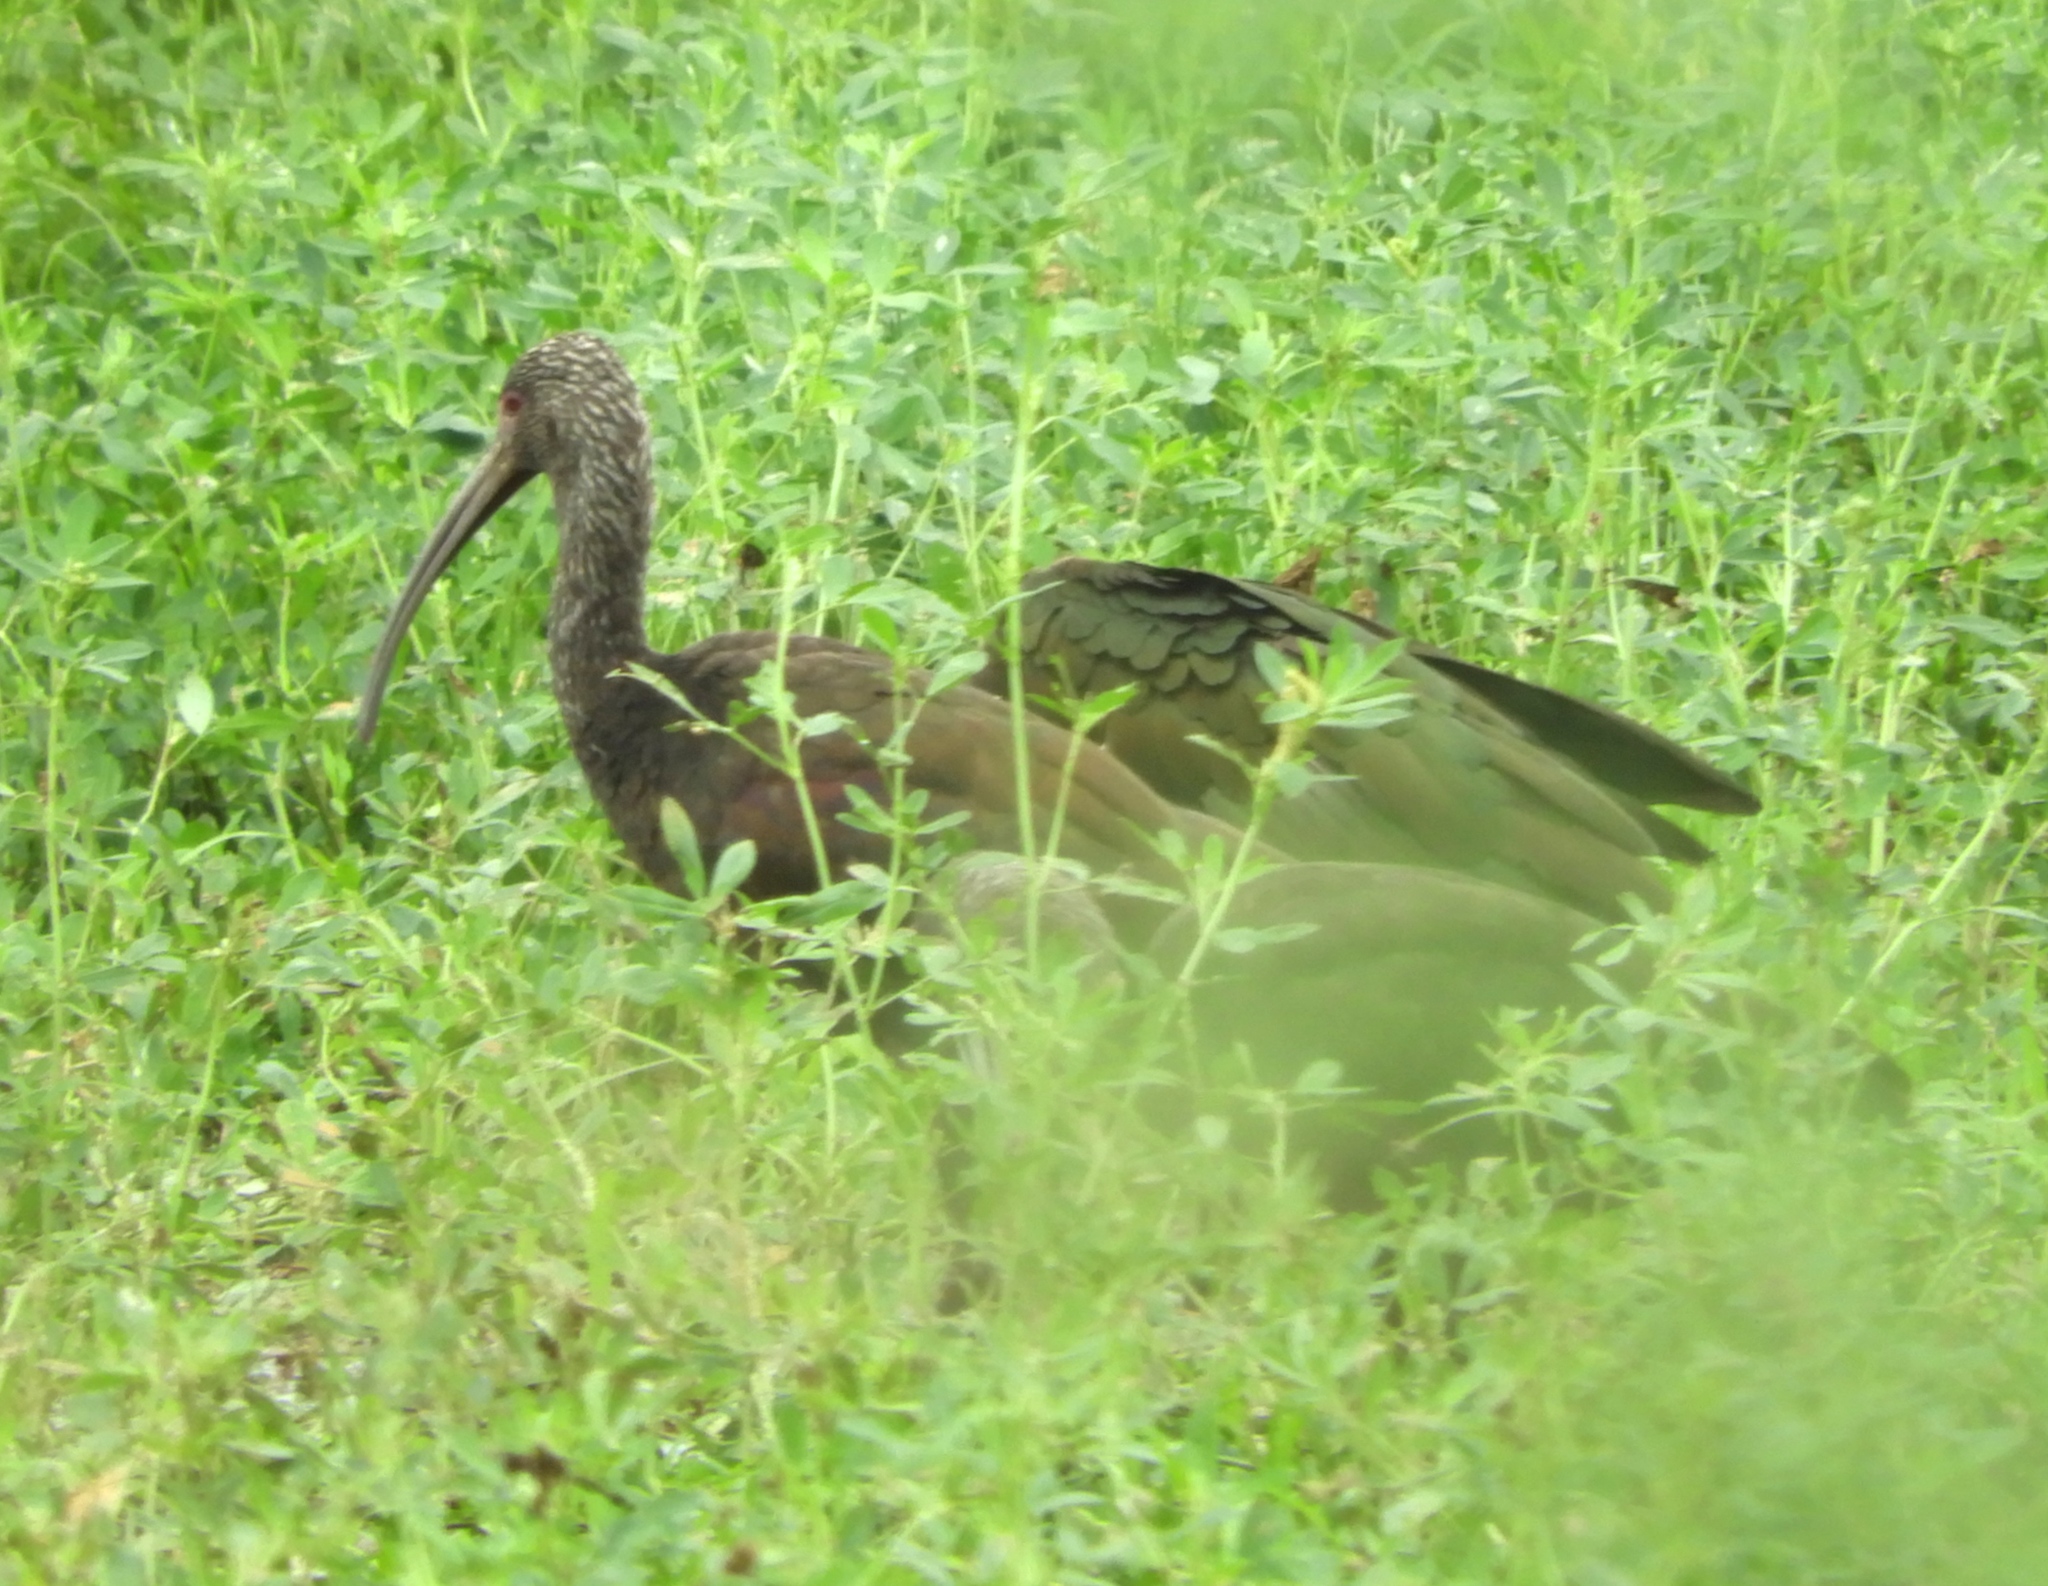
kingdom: Animalia
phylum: Chordata
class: Aves
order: Pelecaniformes
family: Threskiornithidae
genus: Plegadis
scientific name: Plegadis chihi
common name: White-faced ibis
